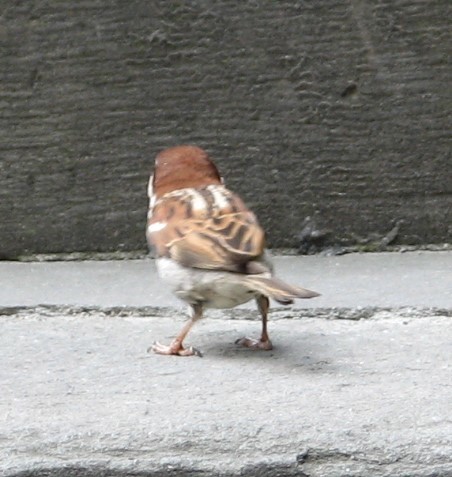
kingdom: Animalia
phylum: Chordata
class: Aves
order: Passeriformes
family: Passeridae
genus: Passer
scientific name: Passer italiae
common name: Italian sparrow
